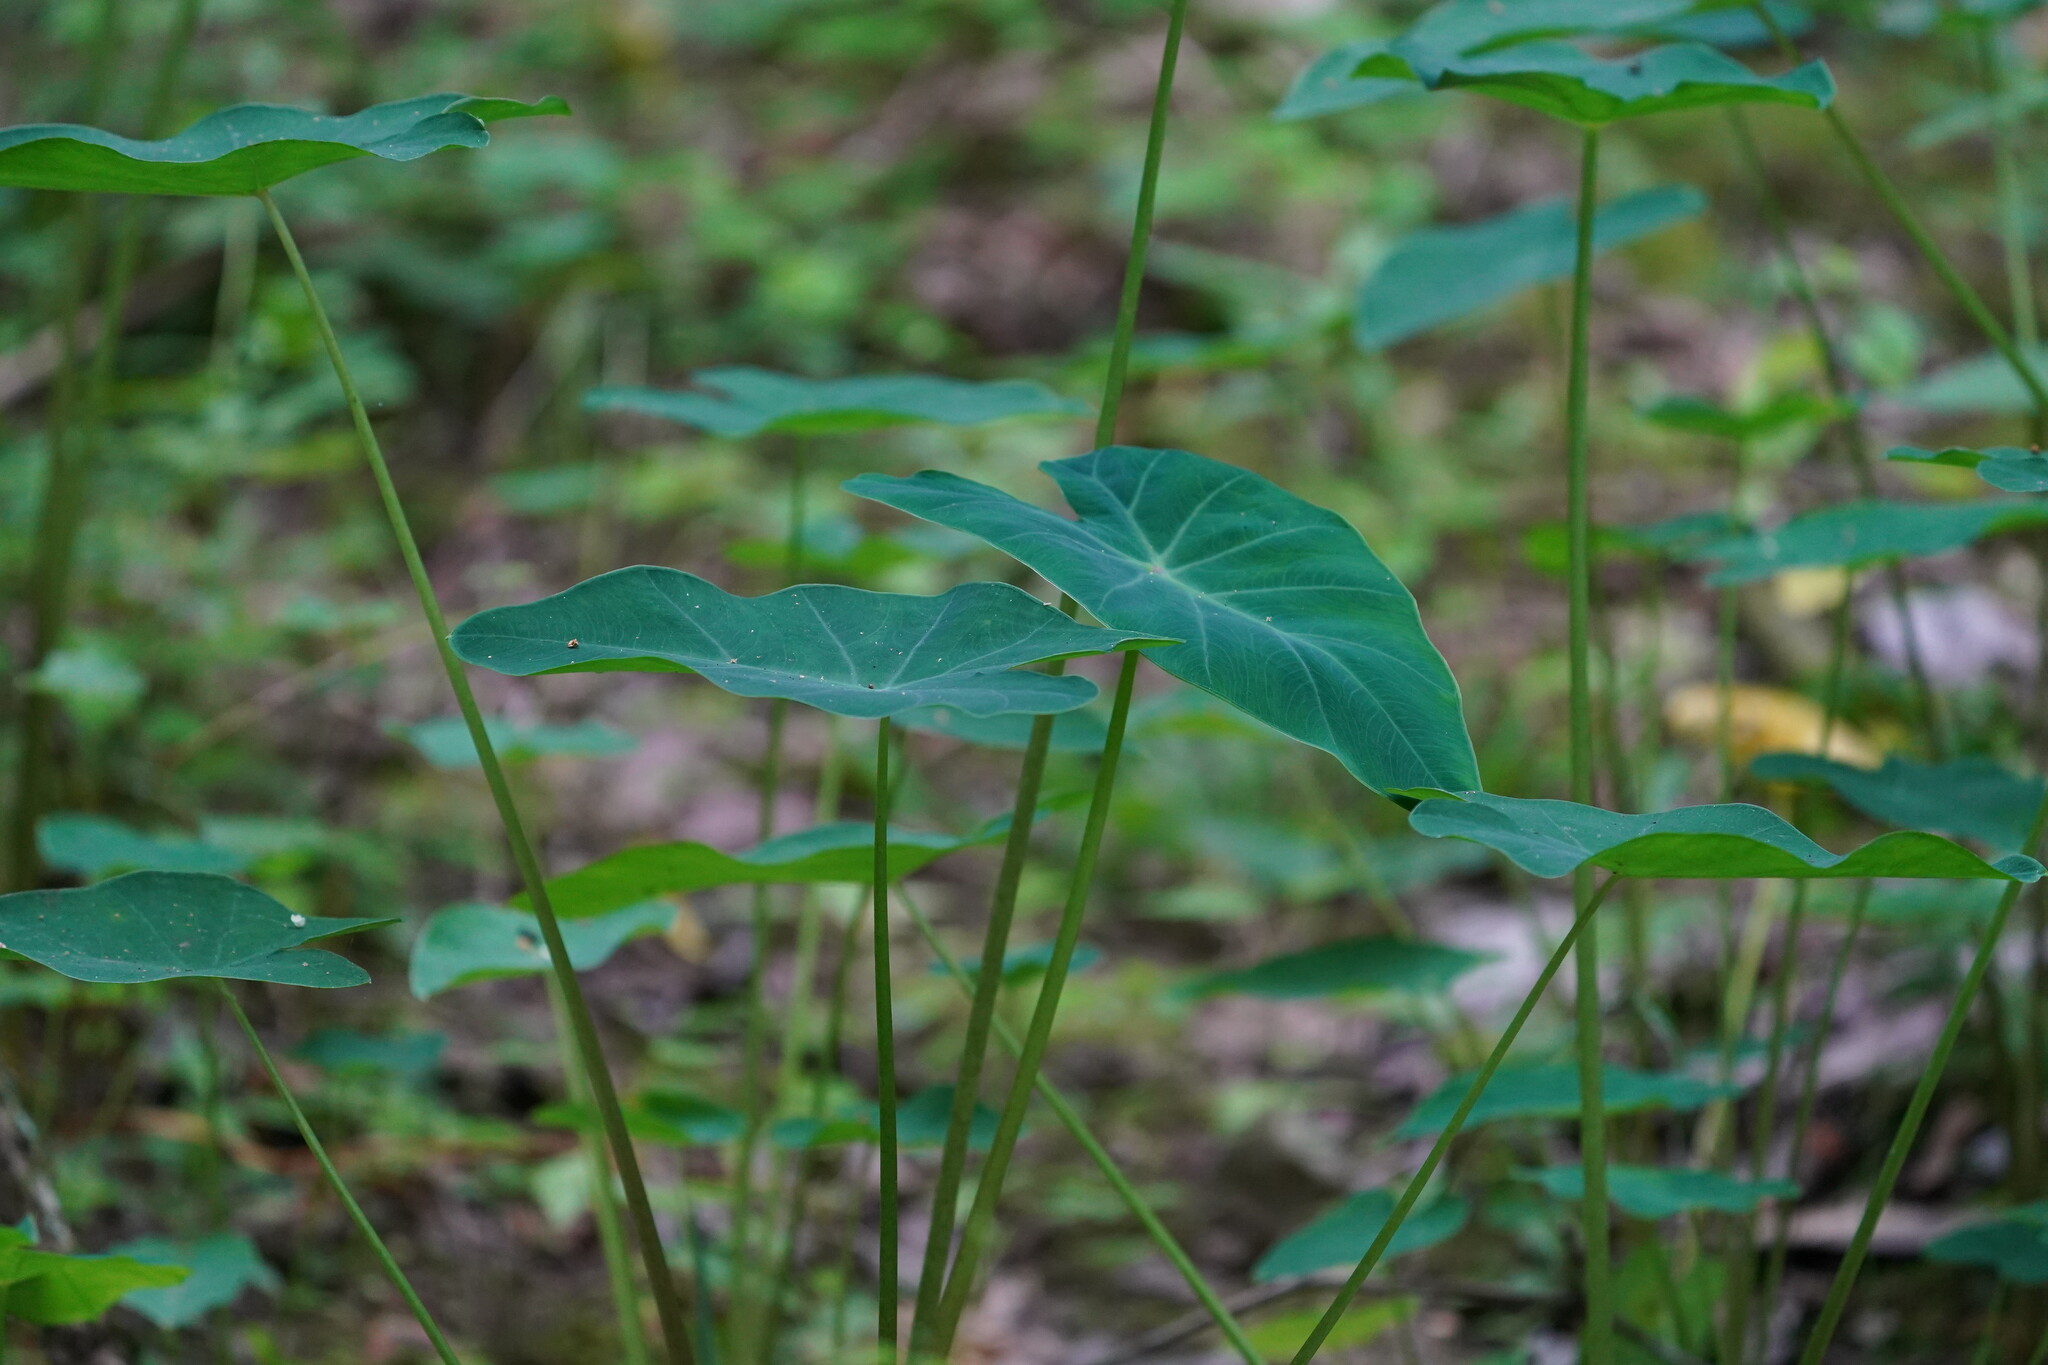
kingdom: Plantae
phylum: Tracheophyta
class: Liliopsida
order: Alismatales
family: Araceae
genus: Colocasia
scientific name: Colocasia esculenta
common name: Taro
